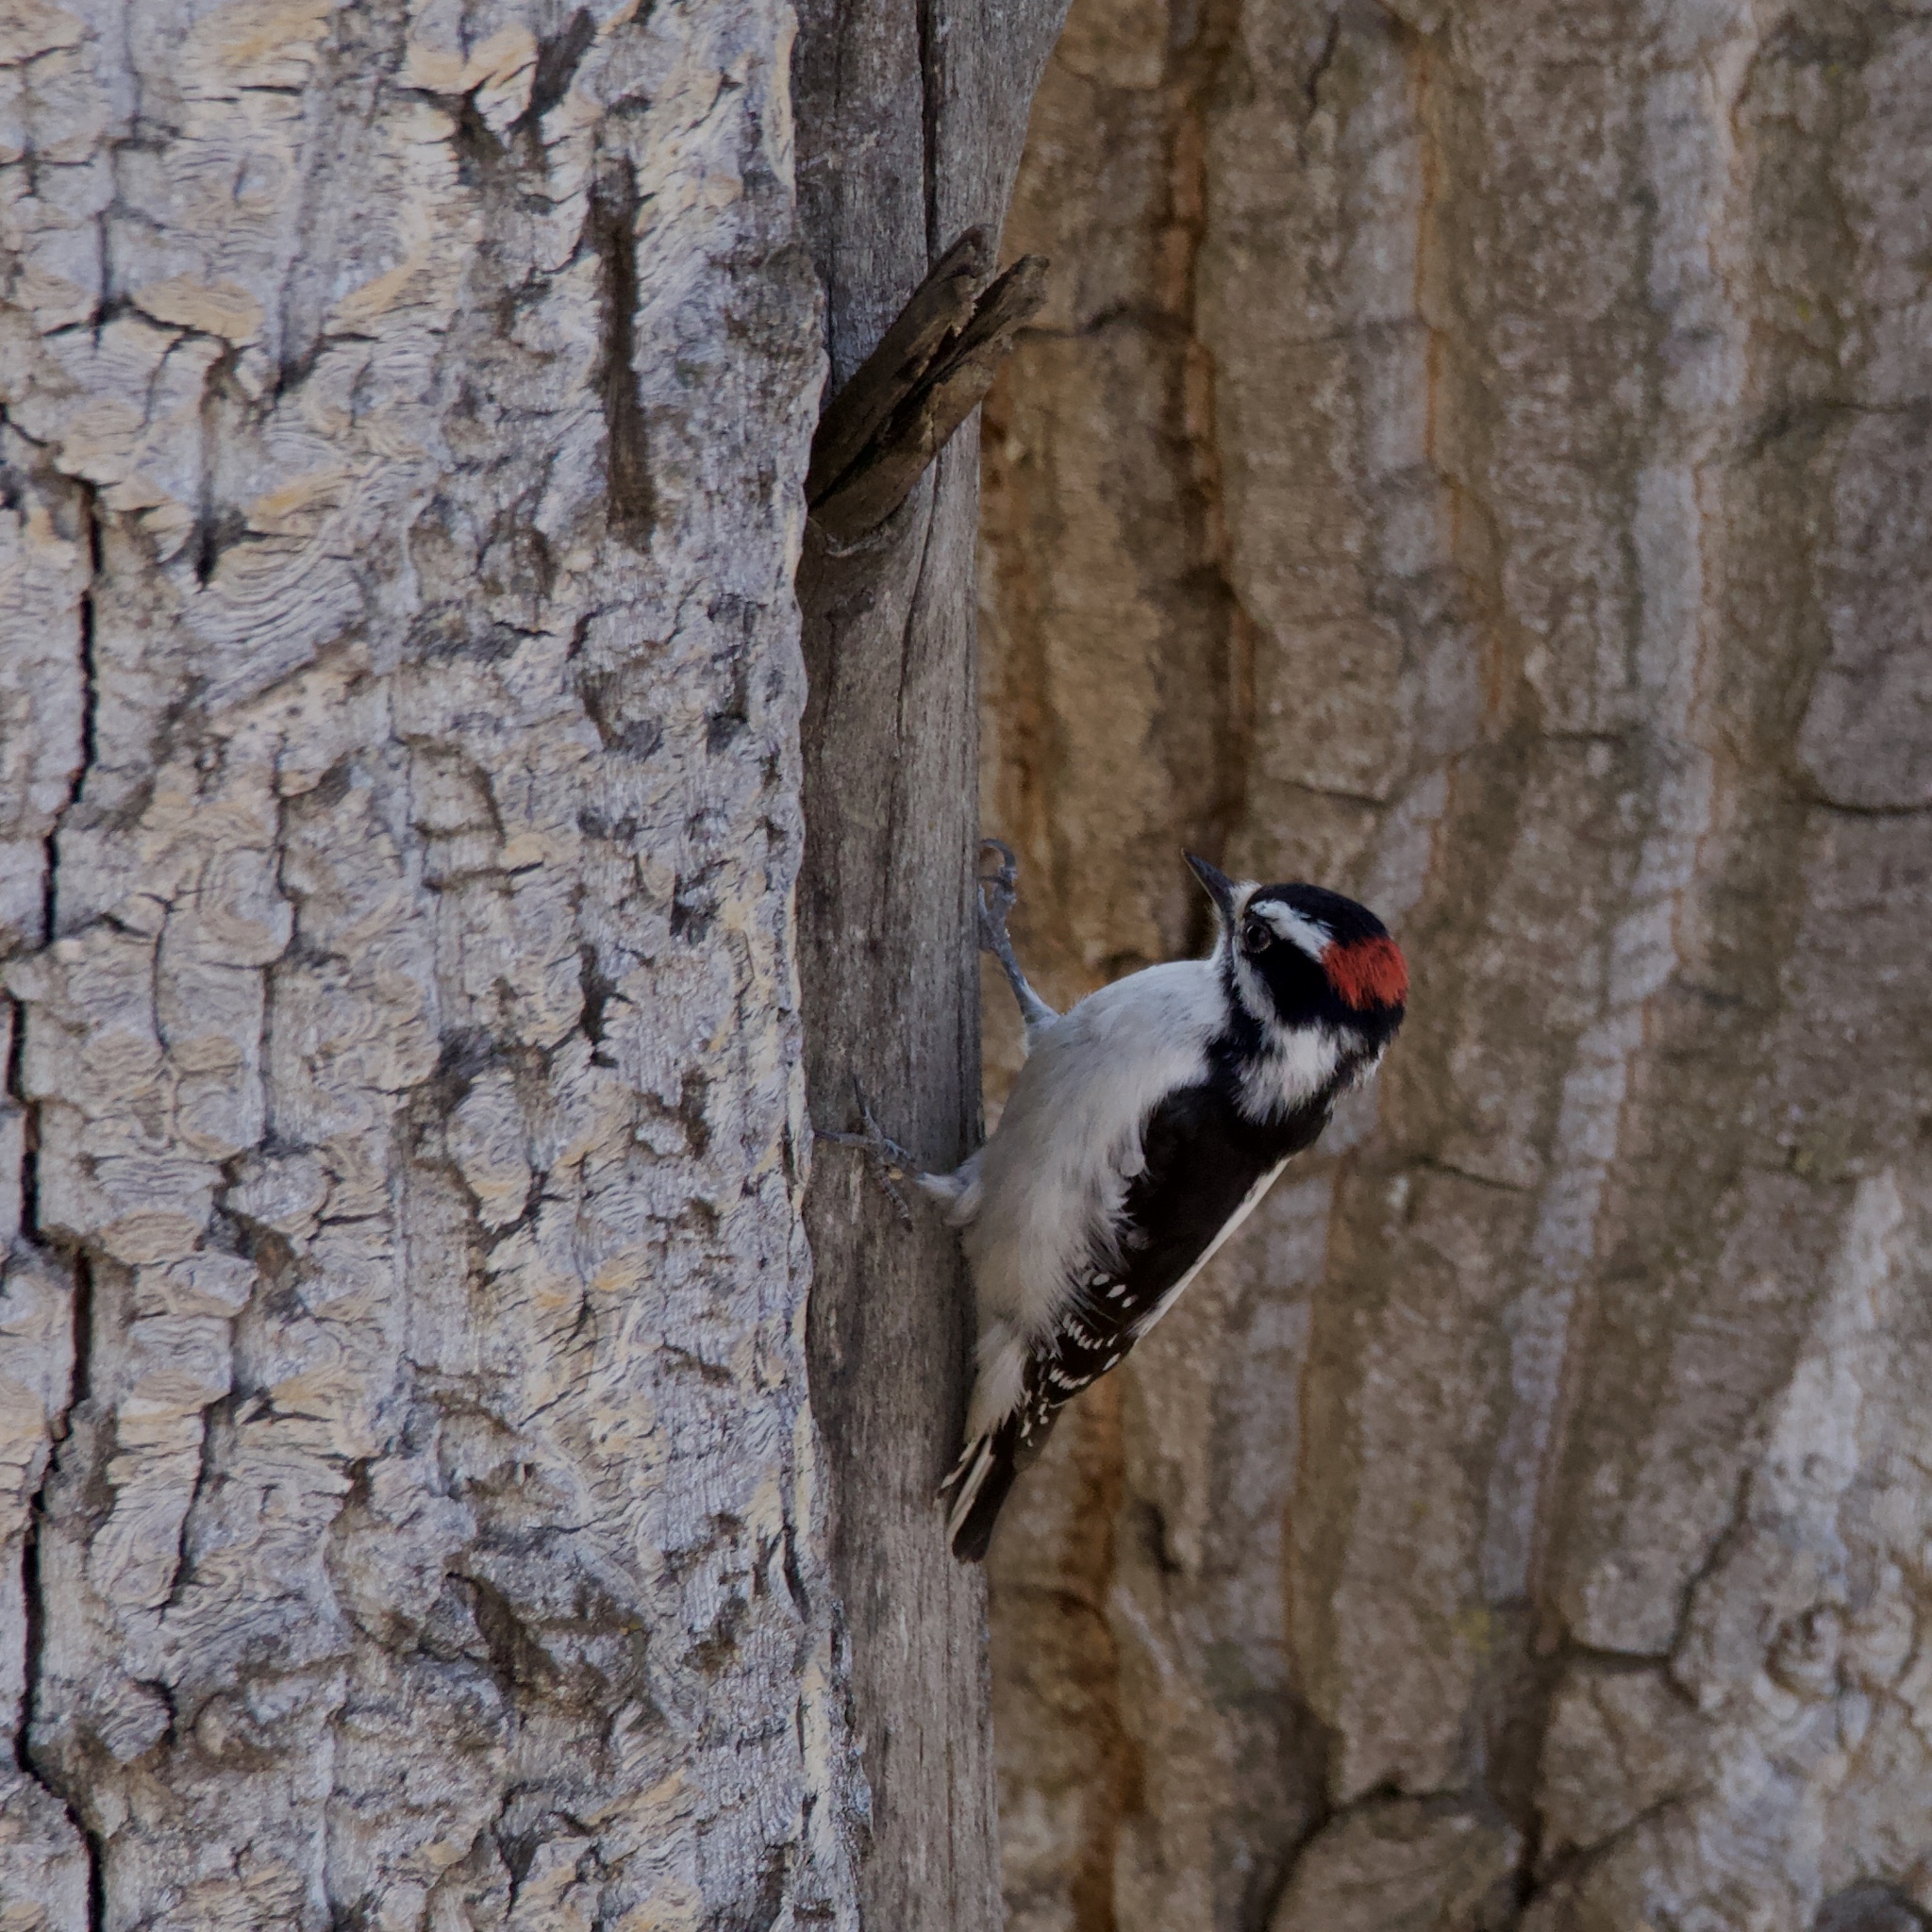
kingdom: Animalia
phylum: Chordata
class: Aves
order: Piciformes
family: Picidae
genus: Dryobates
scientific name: Dryobates pubescens
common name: Downy woodpecker
